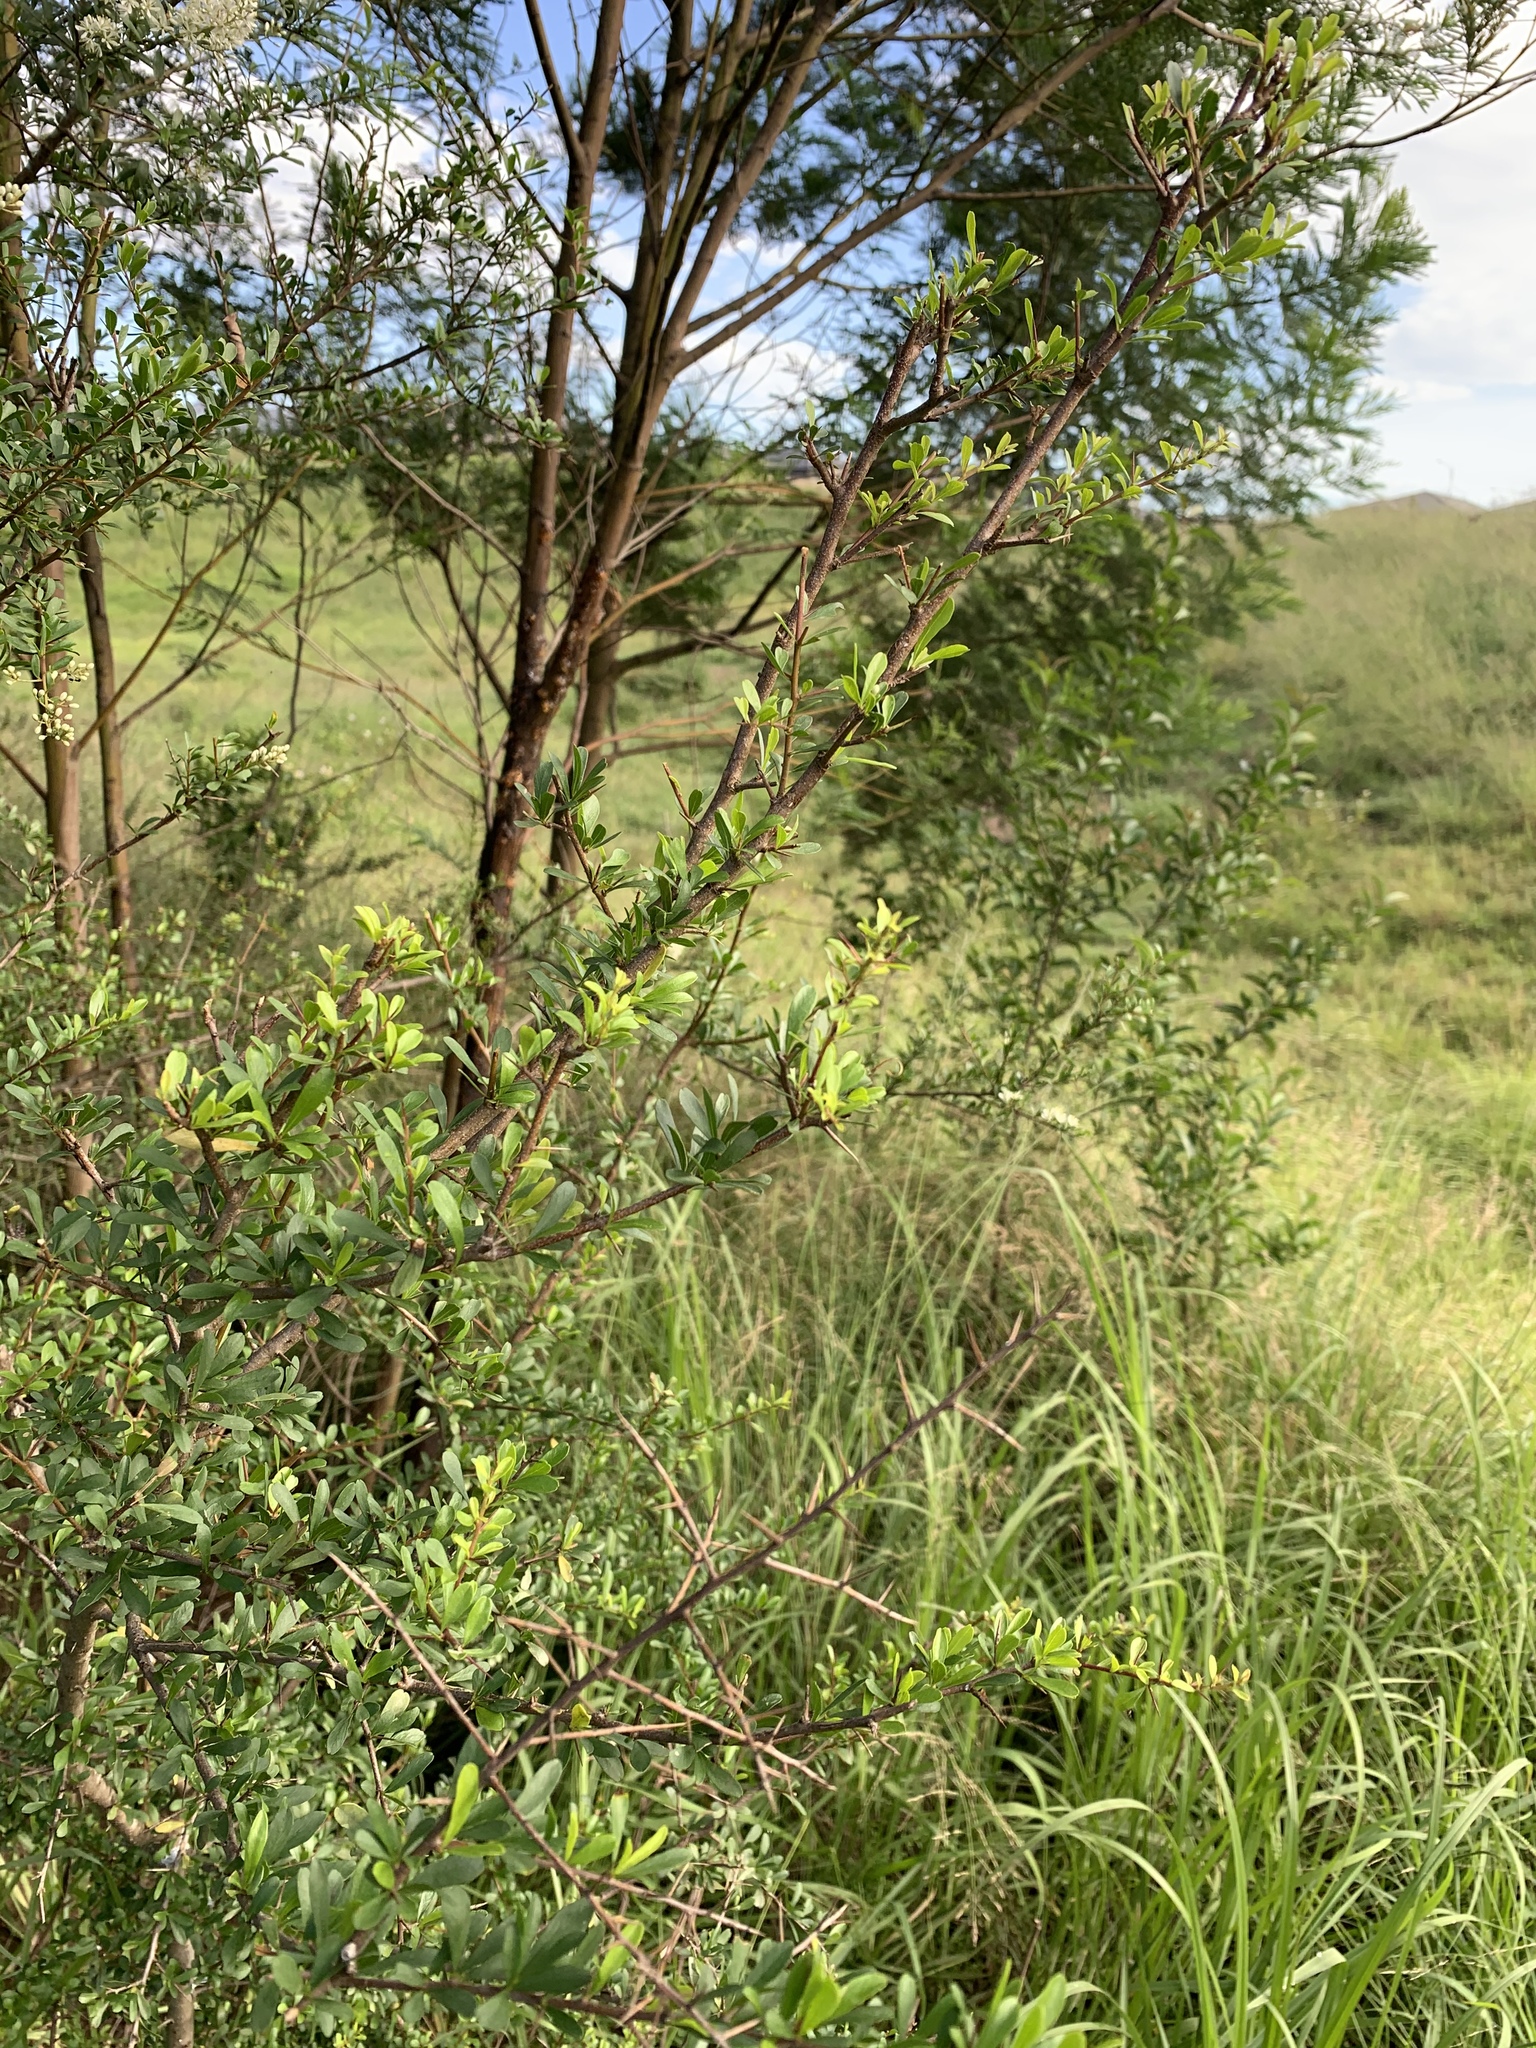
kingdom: Plantae
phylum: Tracheophyta
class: Magnoliopsida
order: Apiales
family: Pittosporaceae
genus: Bursaria
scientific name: Bursaria spinosa
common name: Australian blackthorn
